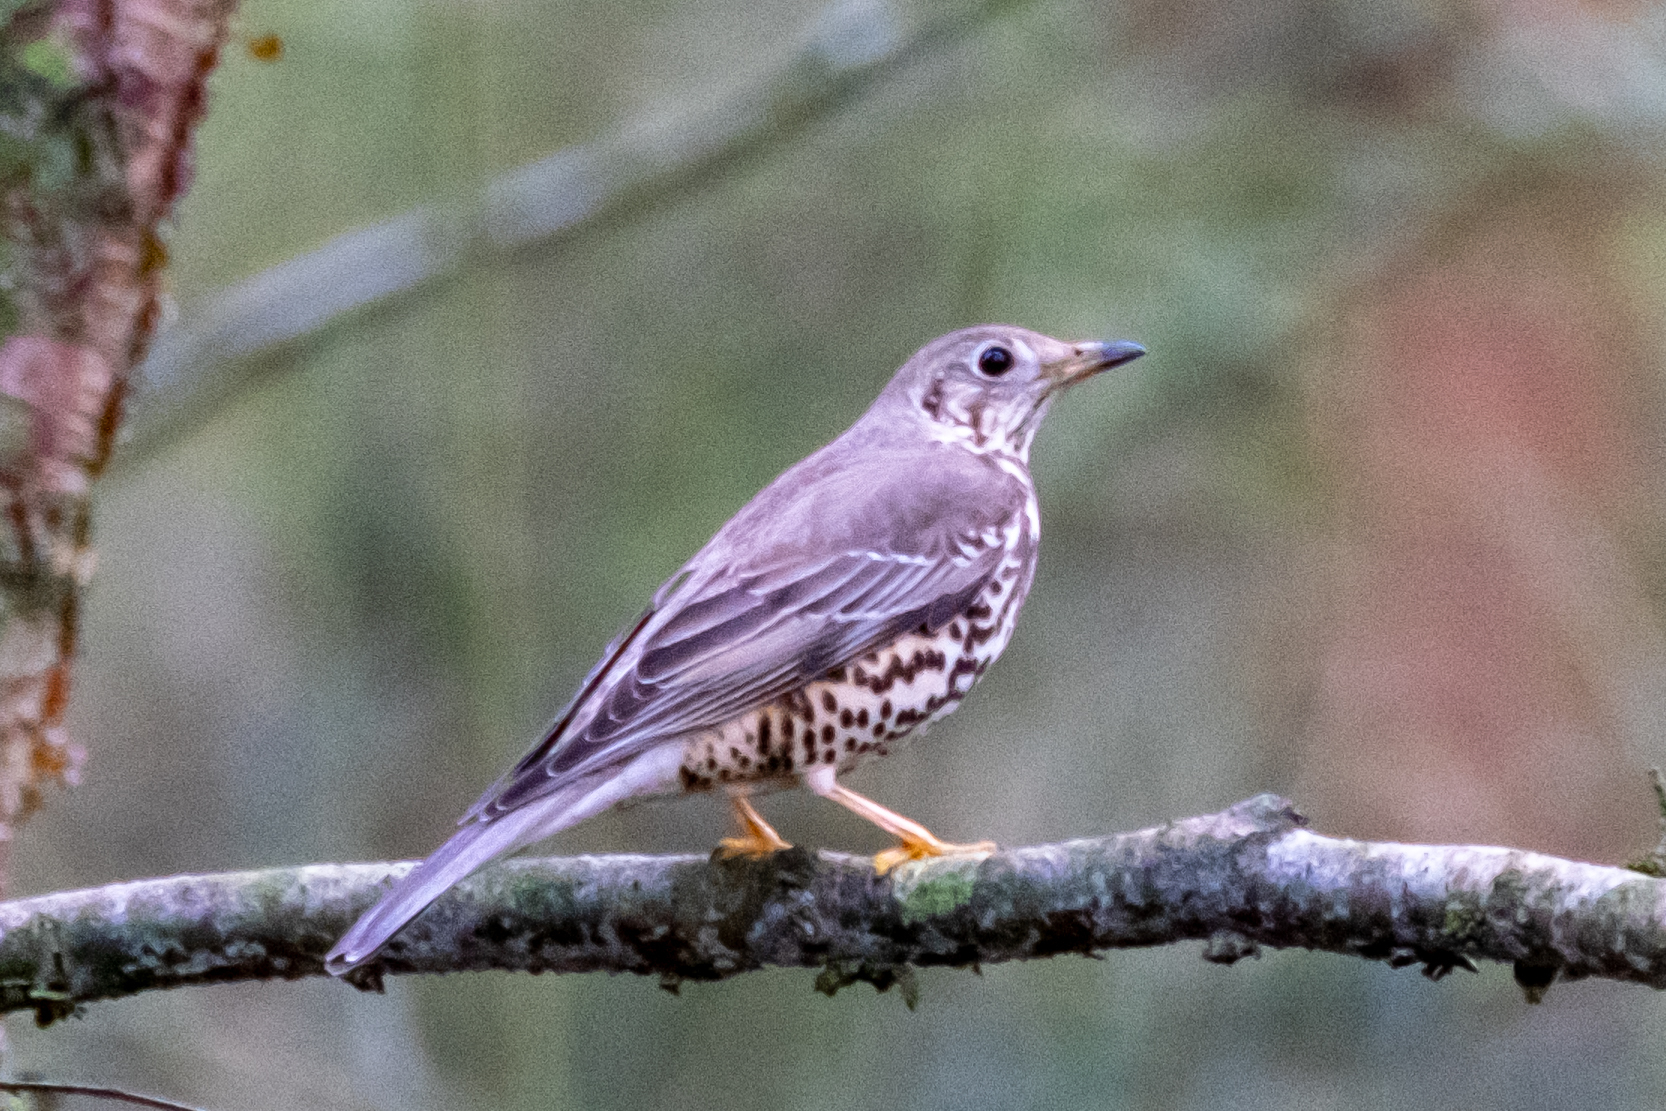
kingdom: Animalia
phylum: Chordata
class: Aves
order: Passeriformes
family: Turdidae
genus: Turdus
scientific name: Turdus viscivorus
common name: Mistle thrush
